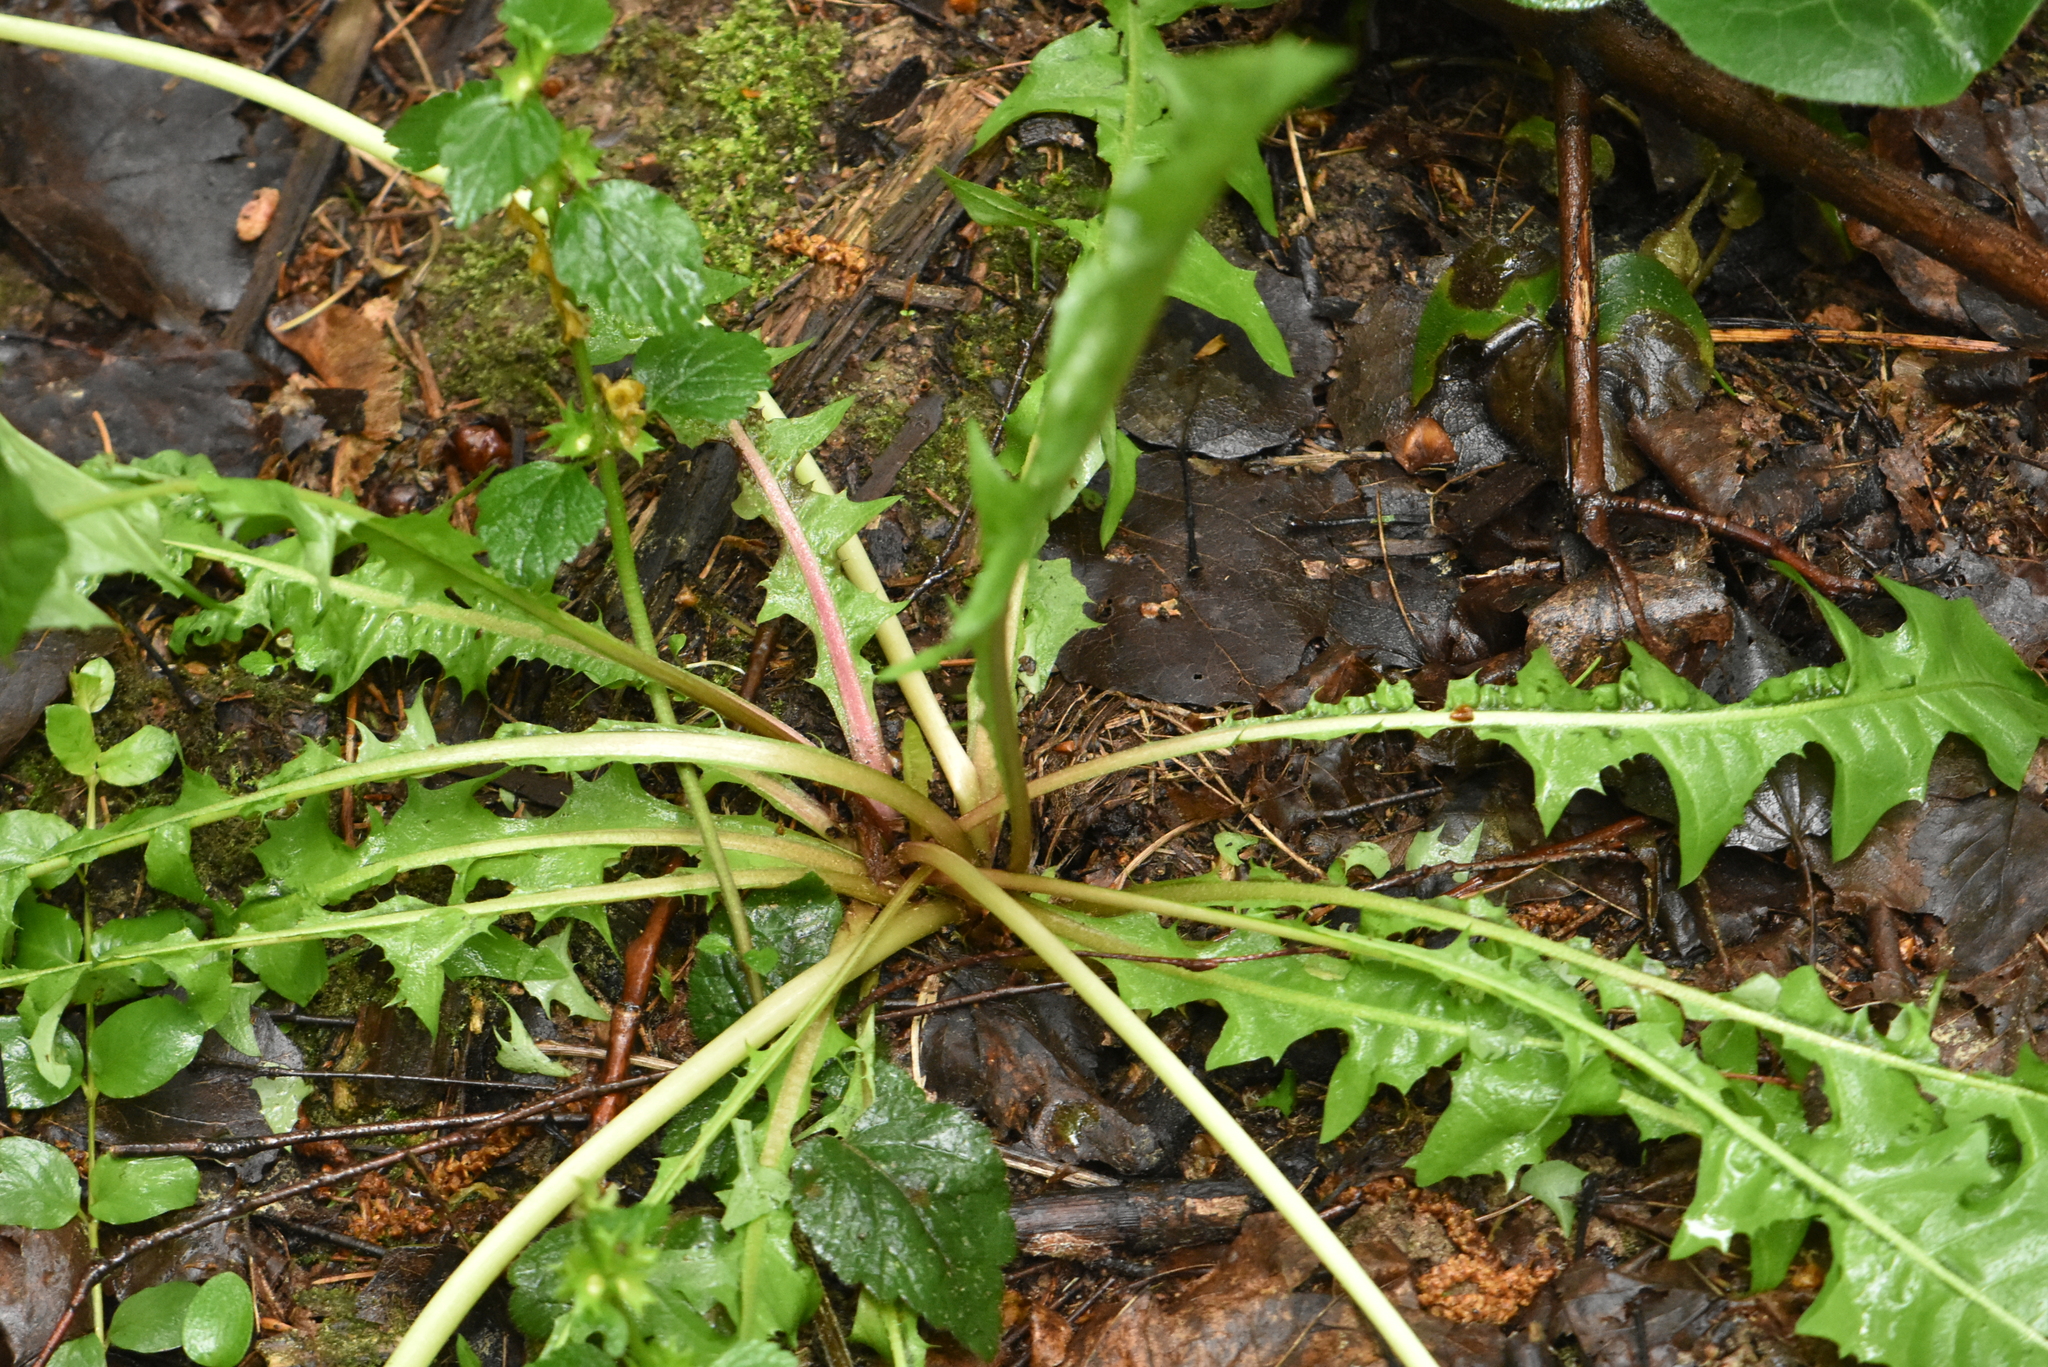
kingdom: Plantae
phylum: Tracheophyta
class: Magnoliopsida
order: Asterales
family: Asteraceae
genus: Taraxacum
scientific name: Taraxacum officinale
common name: Common dandelion
